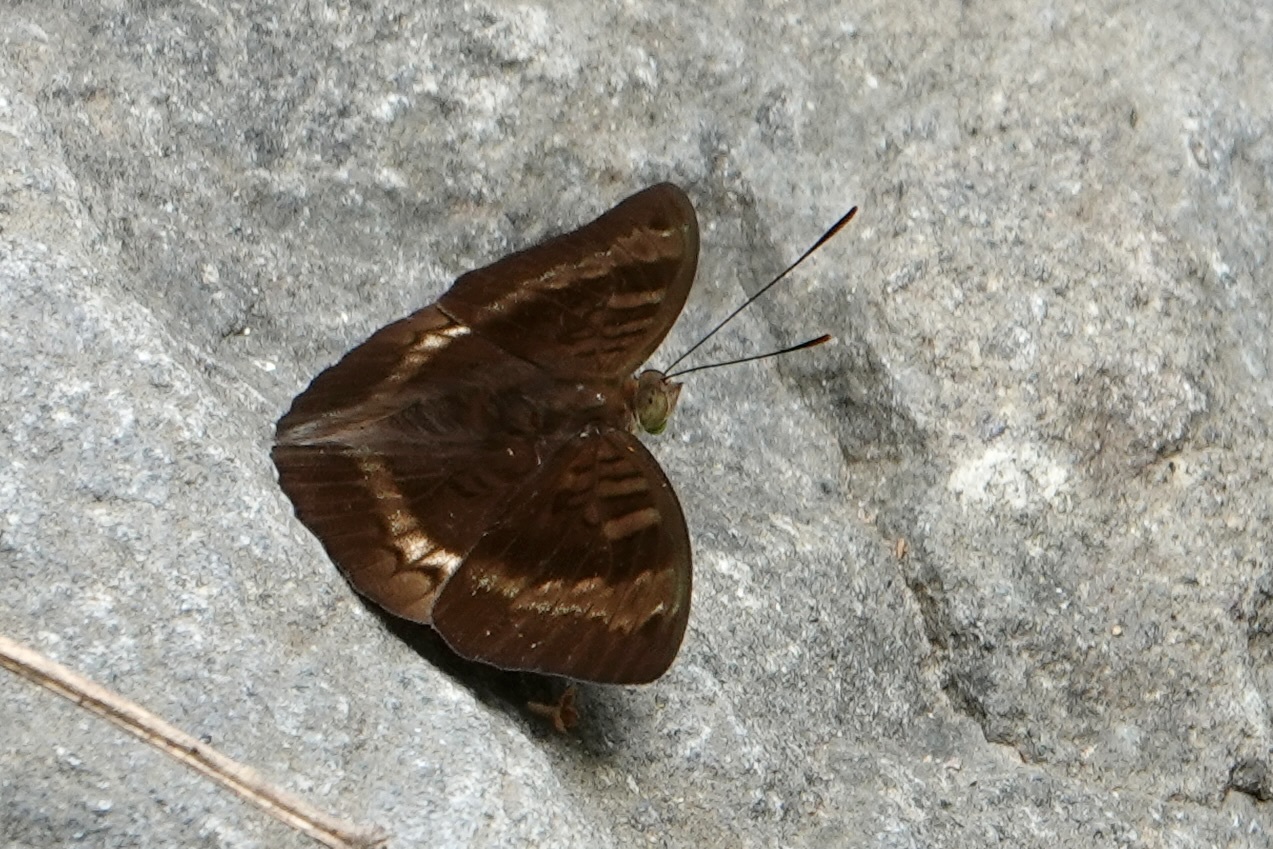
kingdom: Animalia
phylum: Arthropoda
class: Insecta
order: Lepidoptera
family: Nymphalidae
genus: Euthalia
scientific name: Euthalia monina
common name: Powdered baron
